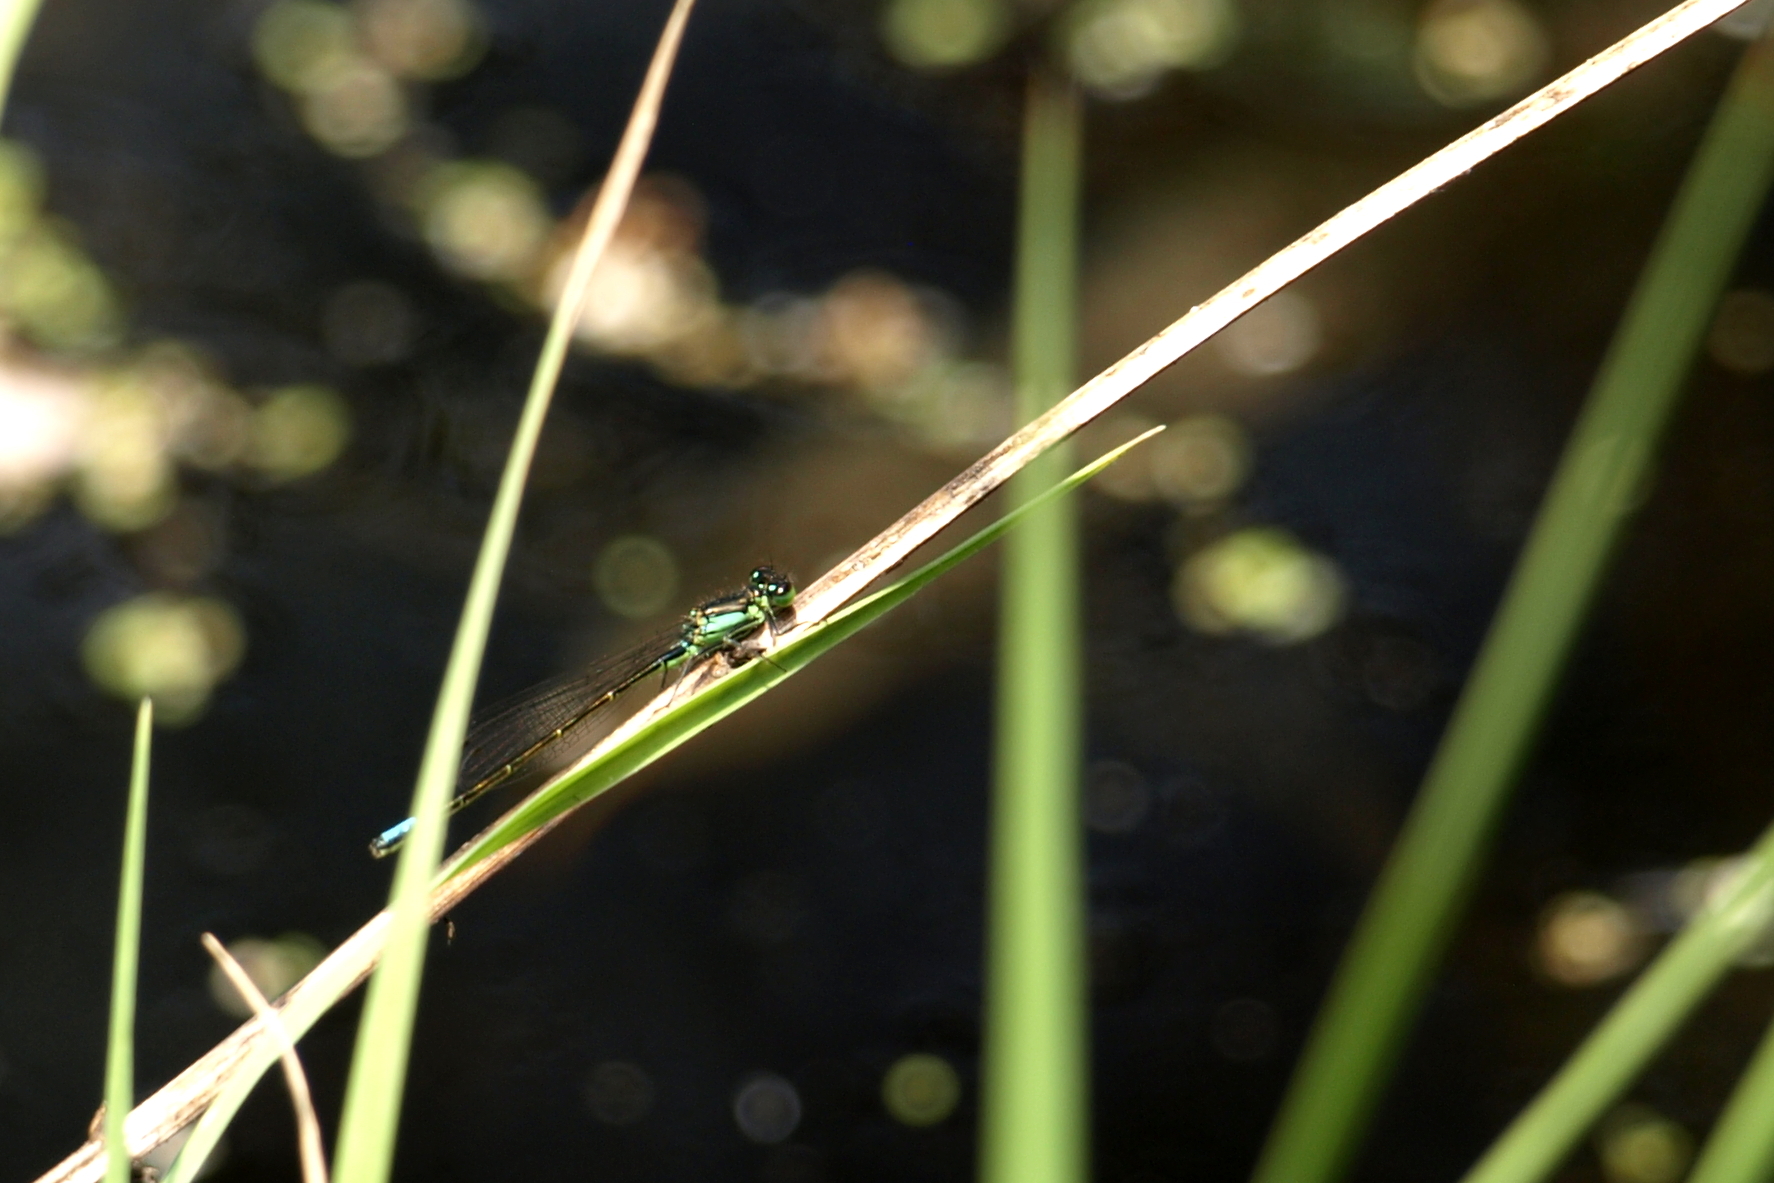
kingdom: Animalia
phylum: Arthropoda
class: Insecta
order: Odonata
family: Coenagrionidae
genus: Ischnura
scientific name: Ischnura denticollis
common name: Black-fronted forktail
